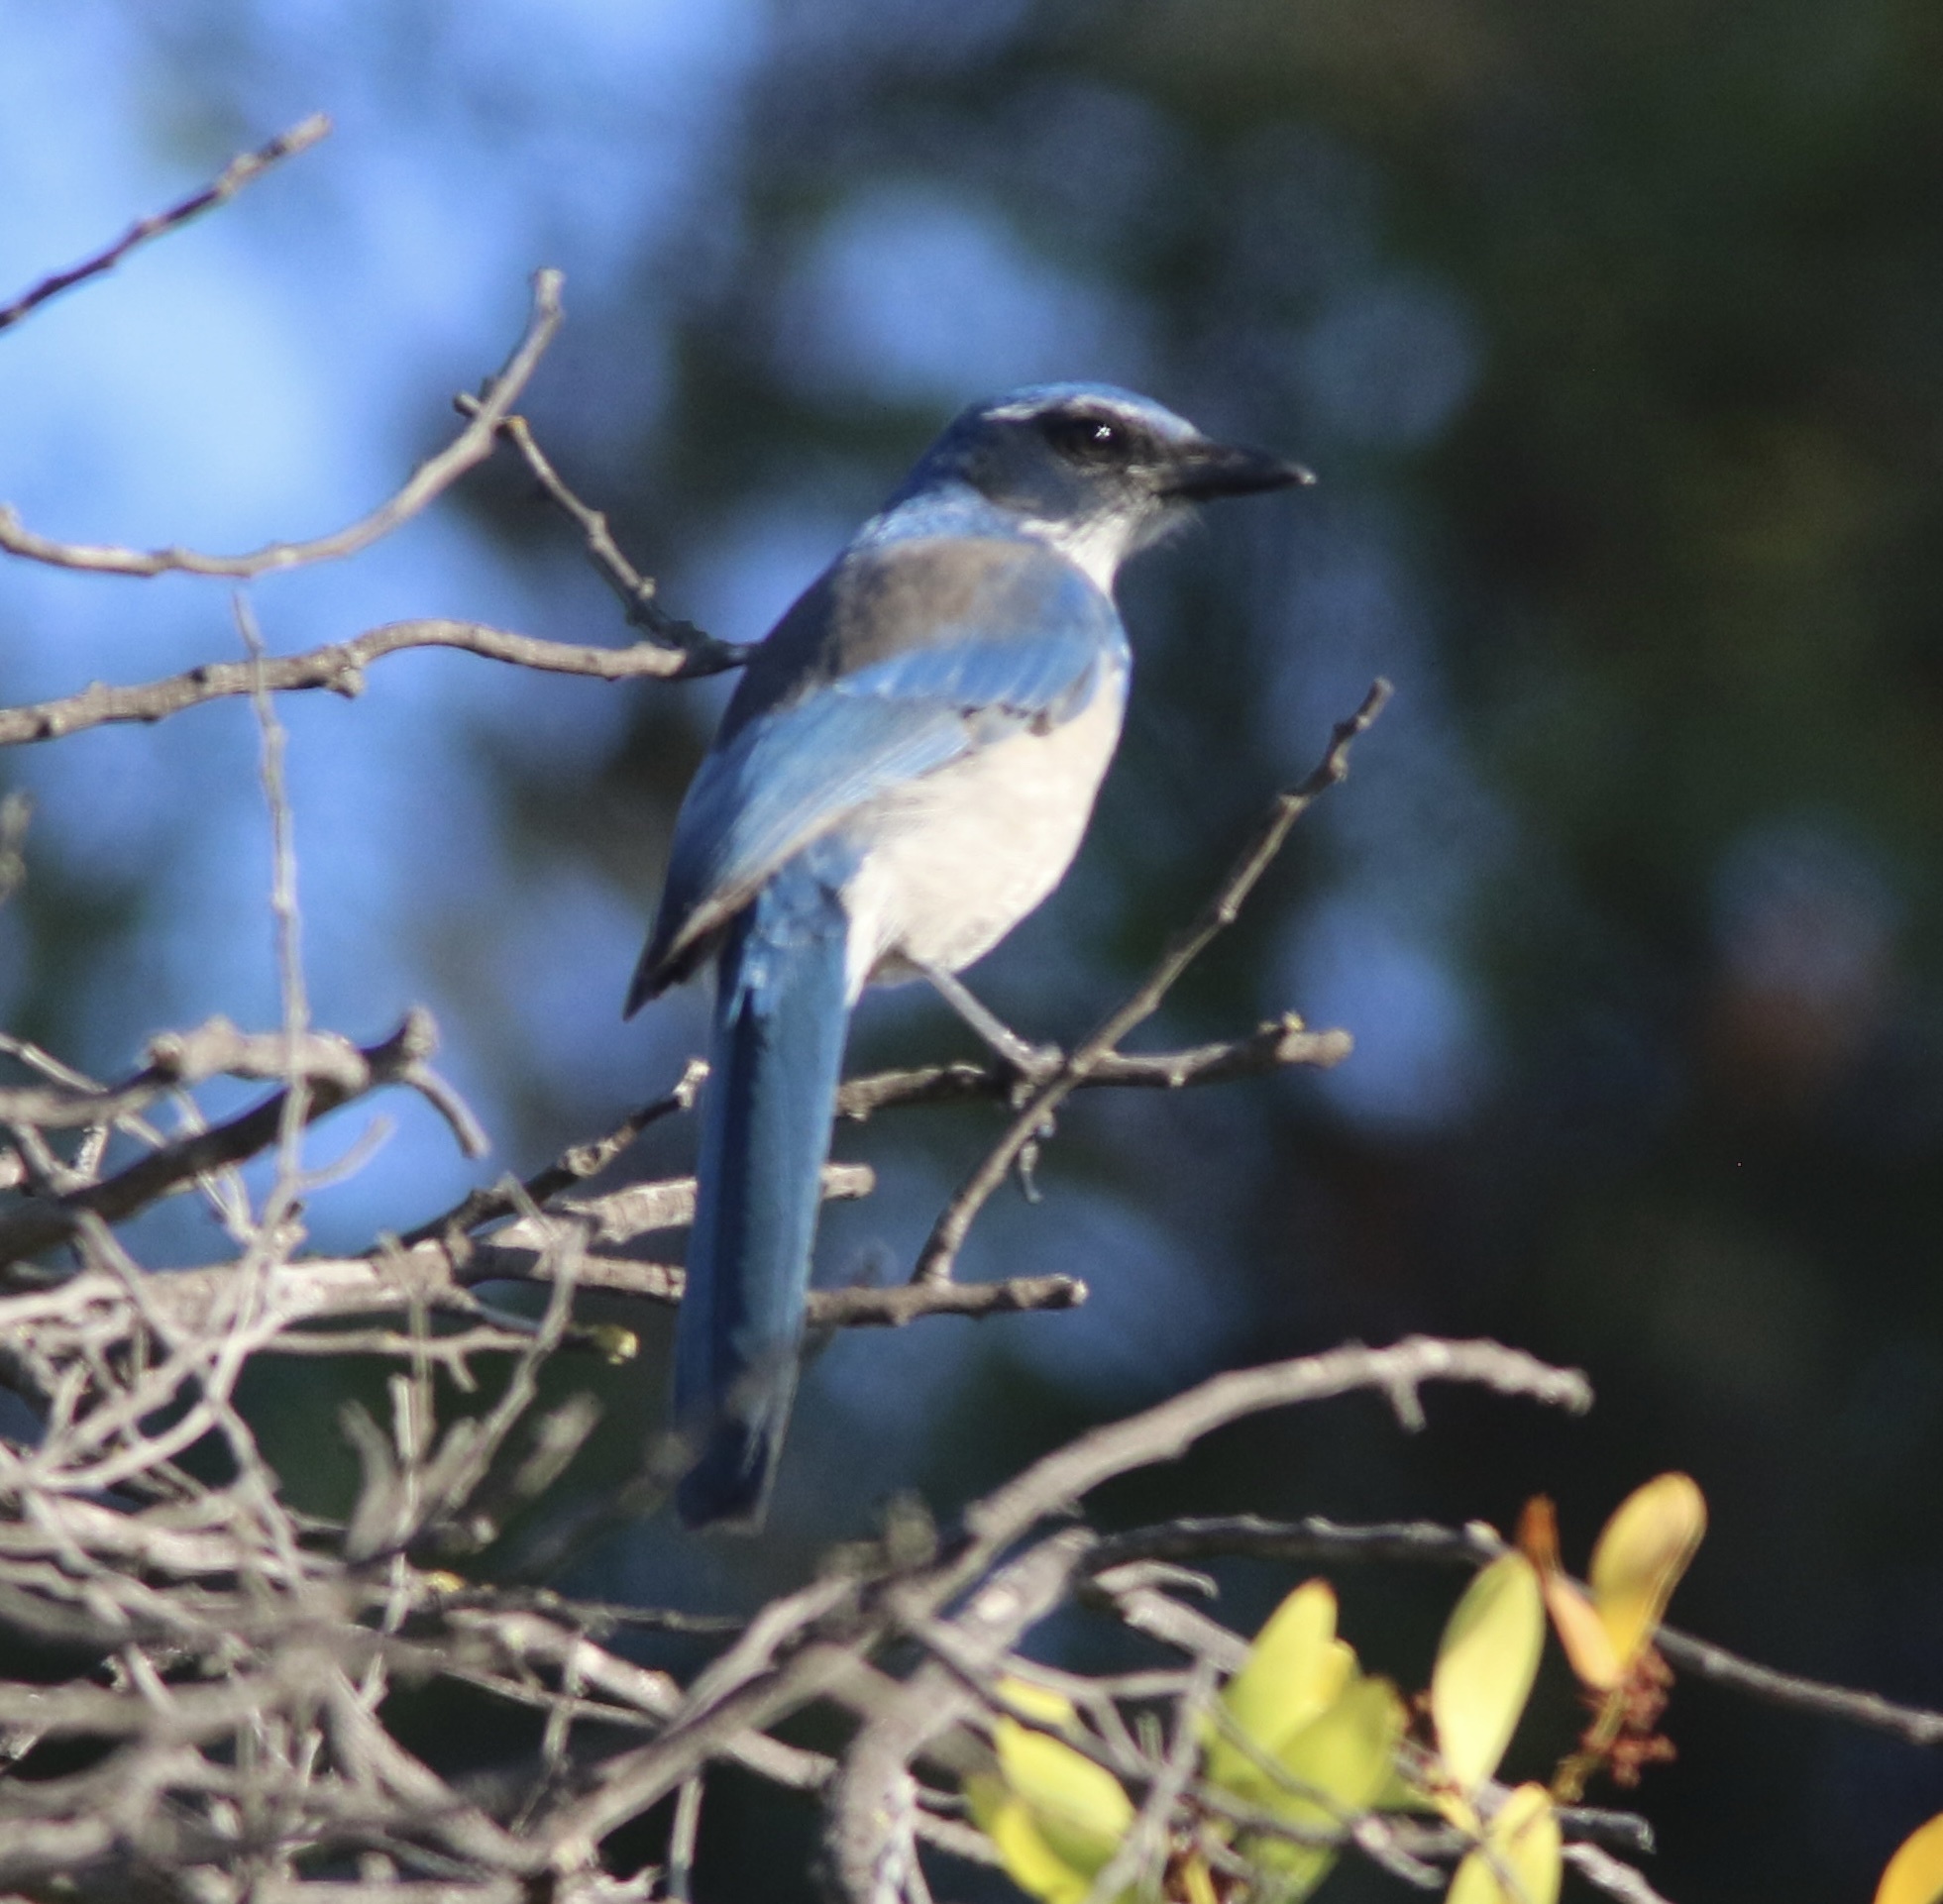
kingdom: Animalia
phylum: Chordata
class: Aves
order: Passeriformes
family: Corvidae
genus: Aphelocoma
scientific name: Aphelocoma californica
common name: California scrub-jay
